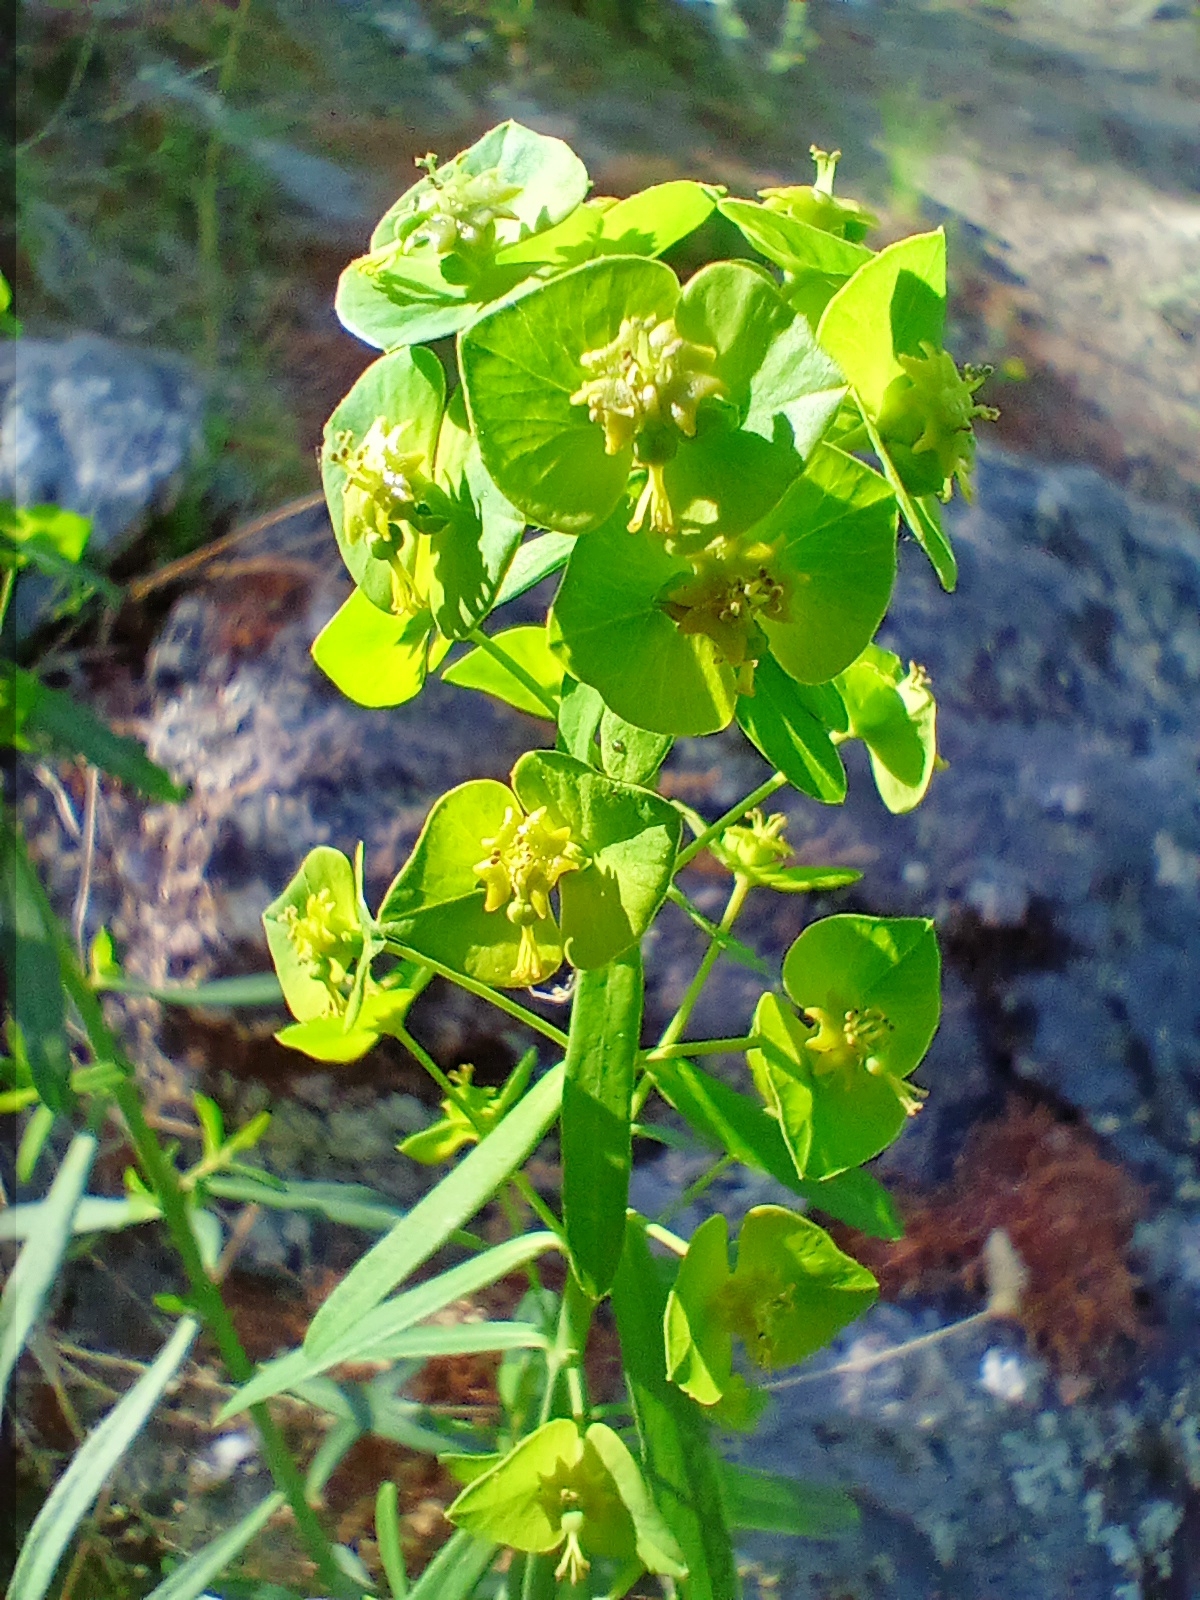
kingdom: Plantae
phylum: Tracheophyta
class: Magnoliopsida
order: Malpighiales
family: Euphorbiaceae
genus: Euphorbia
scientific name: Euphorbia virgata
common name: Leafy spurge
